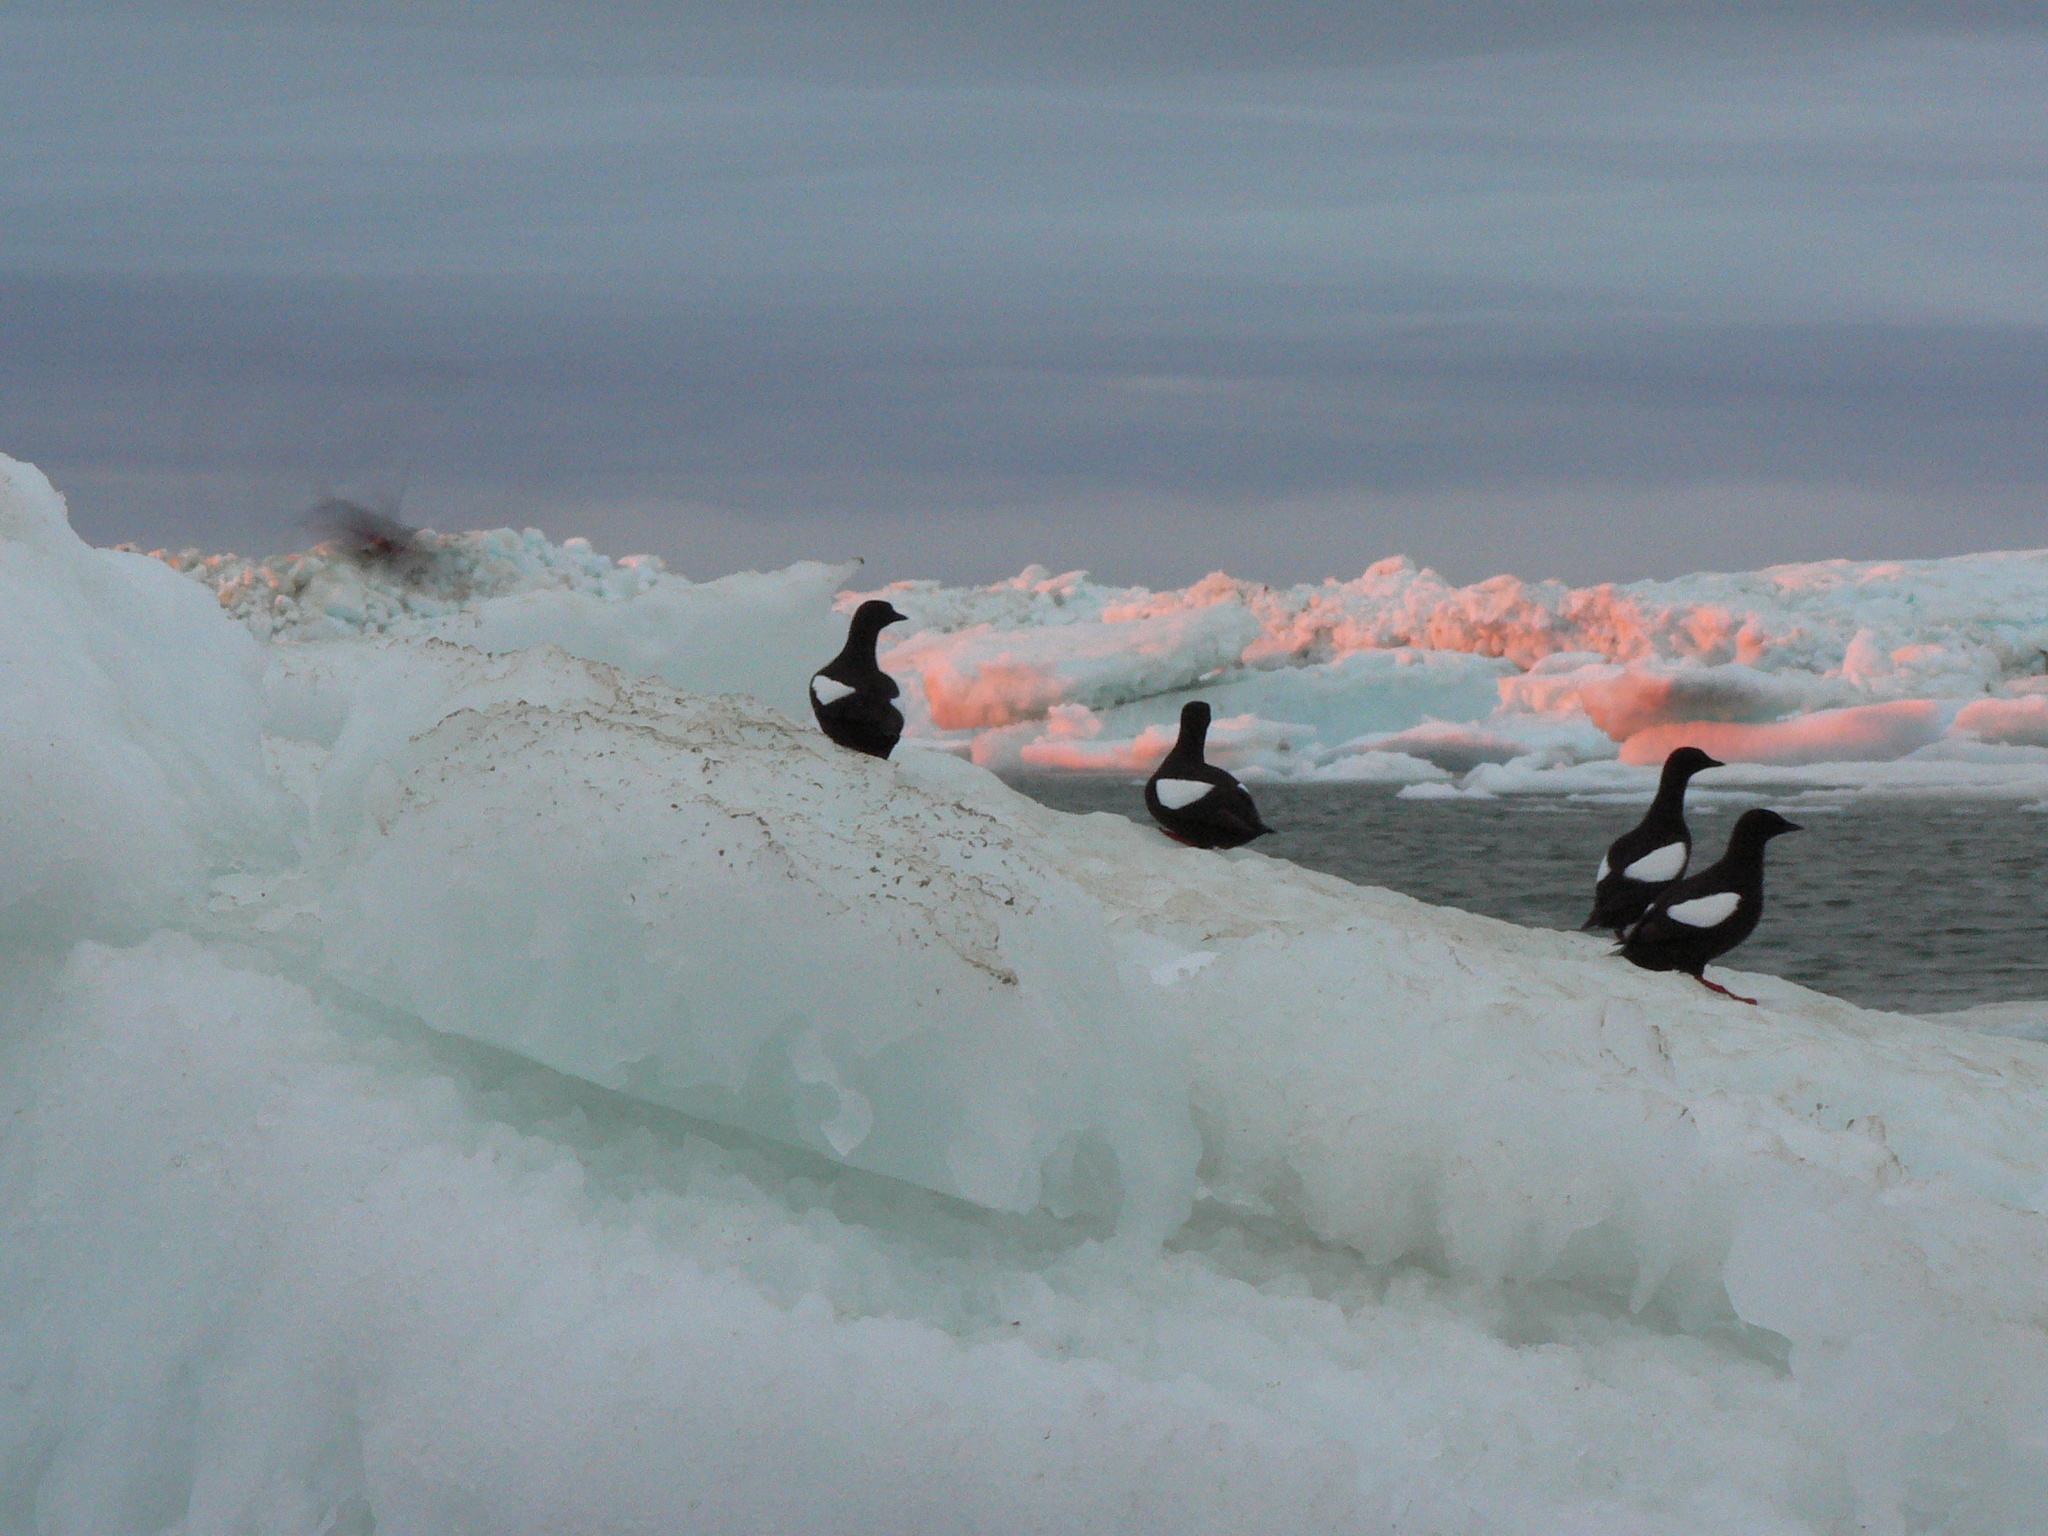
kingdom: Animalia
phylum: Chordata
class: Aves
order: Charadriiformes
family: Alcidae
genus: Cepphus
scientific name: Cepphus grylle
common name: Black guillemot
